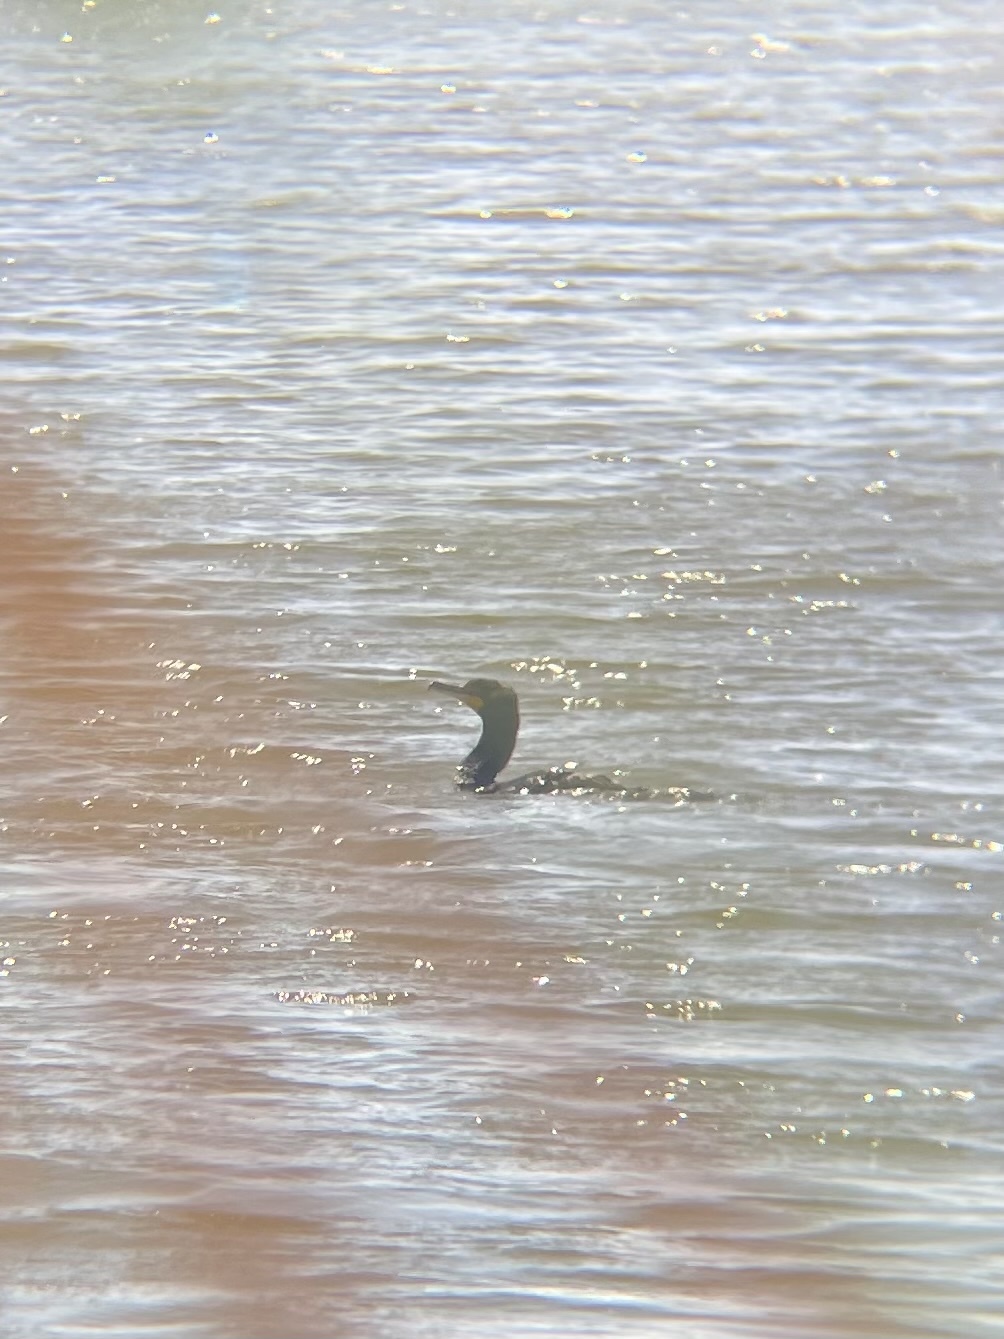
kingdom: Animalia
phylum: Chordata
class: Aves
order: Suliformes
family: Phalacrocoracidae
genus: Phalacrocorax
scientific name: Phalacrocorax auritus
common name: Double-crested cormorant
